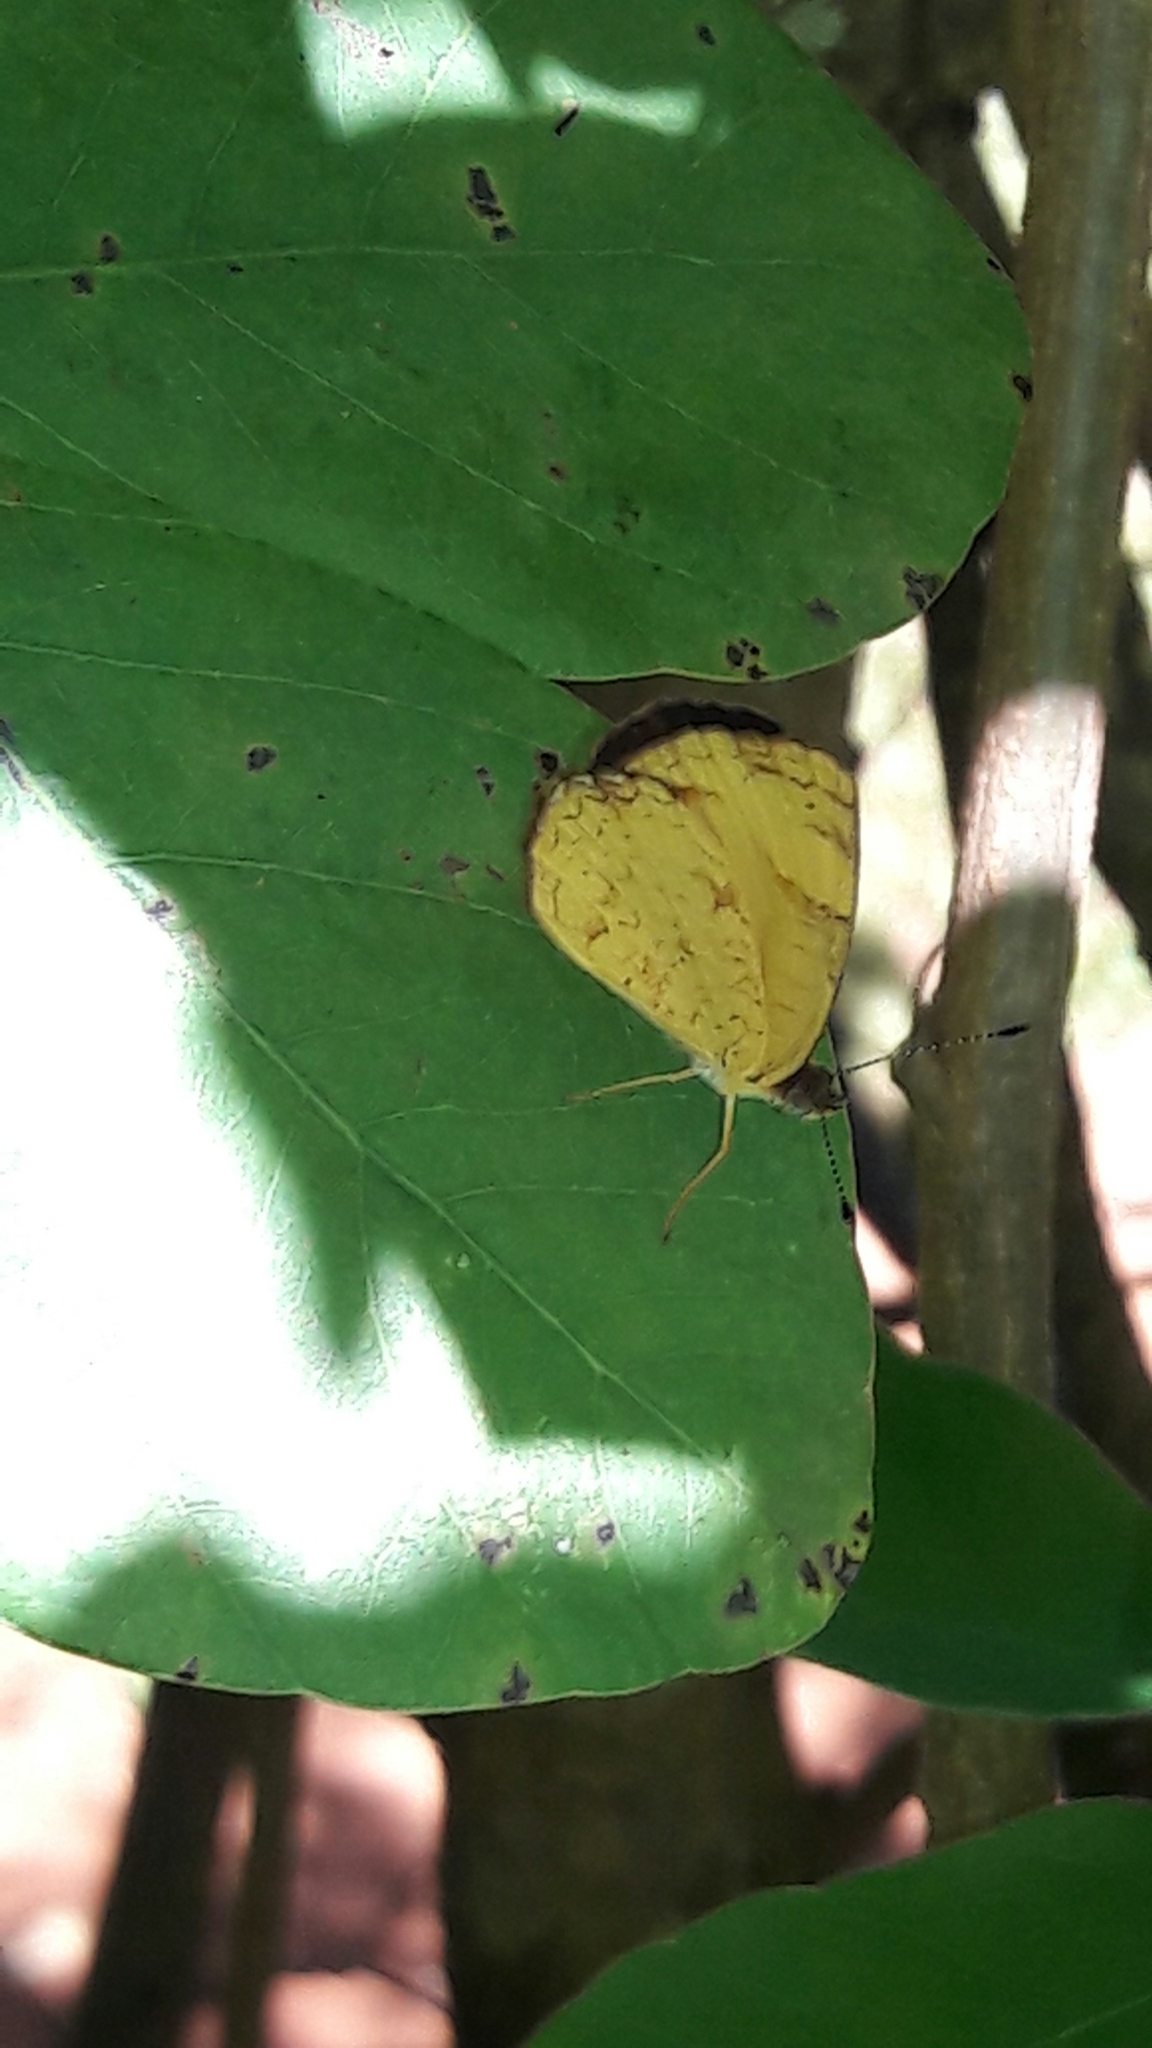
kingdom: Animalia
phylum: Arthropoda
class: Insecta
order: Lepidoptera
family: Nymphalidae
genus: Tegosa
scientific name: Tegosa claudina
